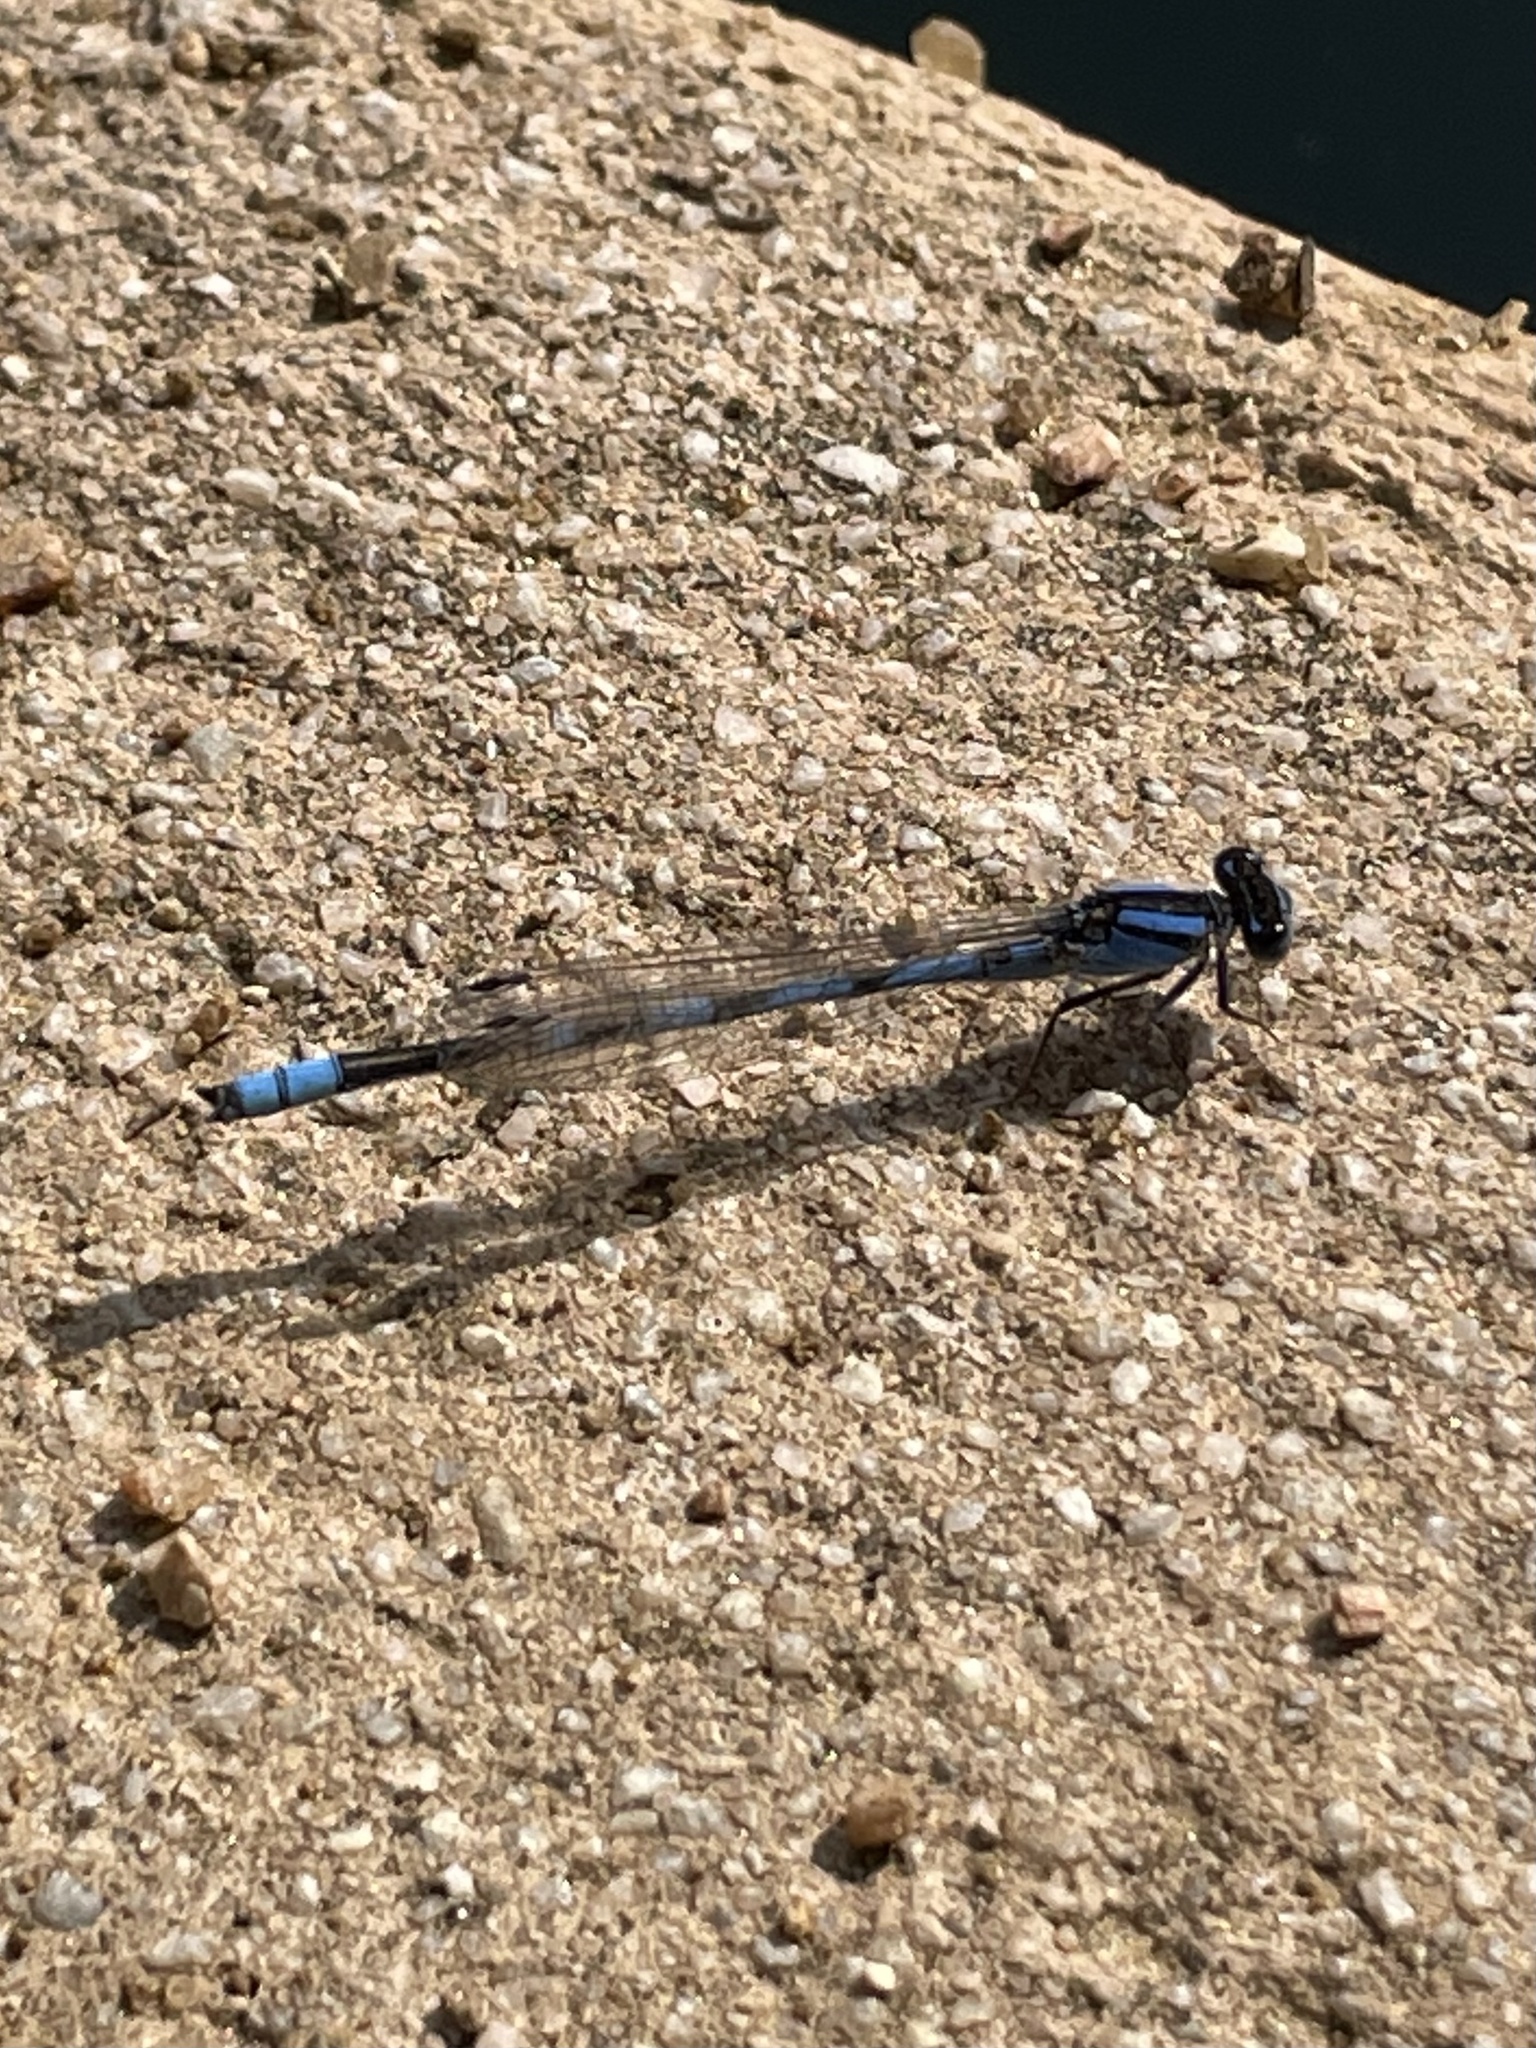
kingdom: Animalia
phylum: Arthropoda
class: Insecta
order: Odonata
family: Coenagrionidae
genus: Enallagma
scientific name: Enallagma civile
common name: Damselfly
